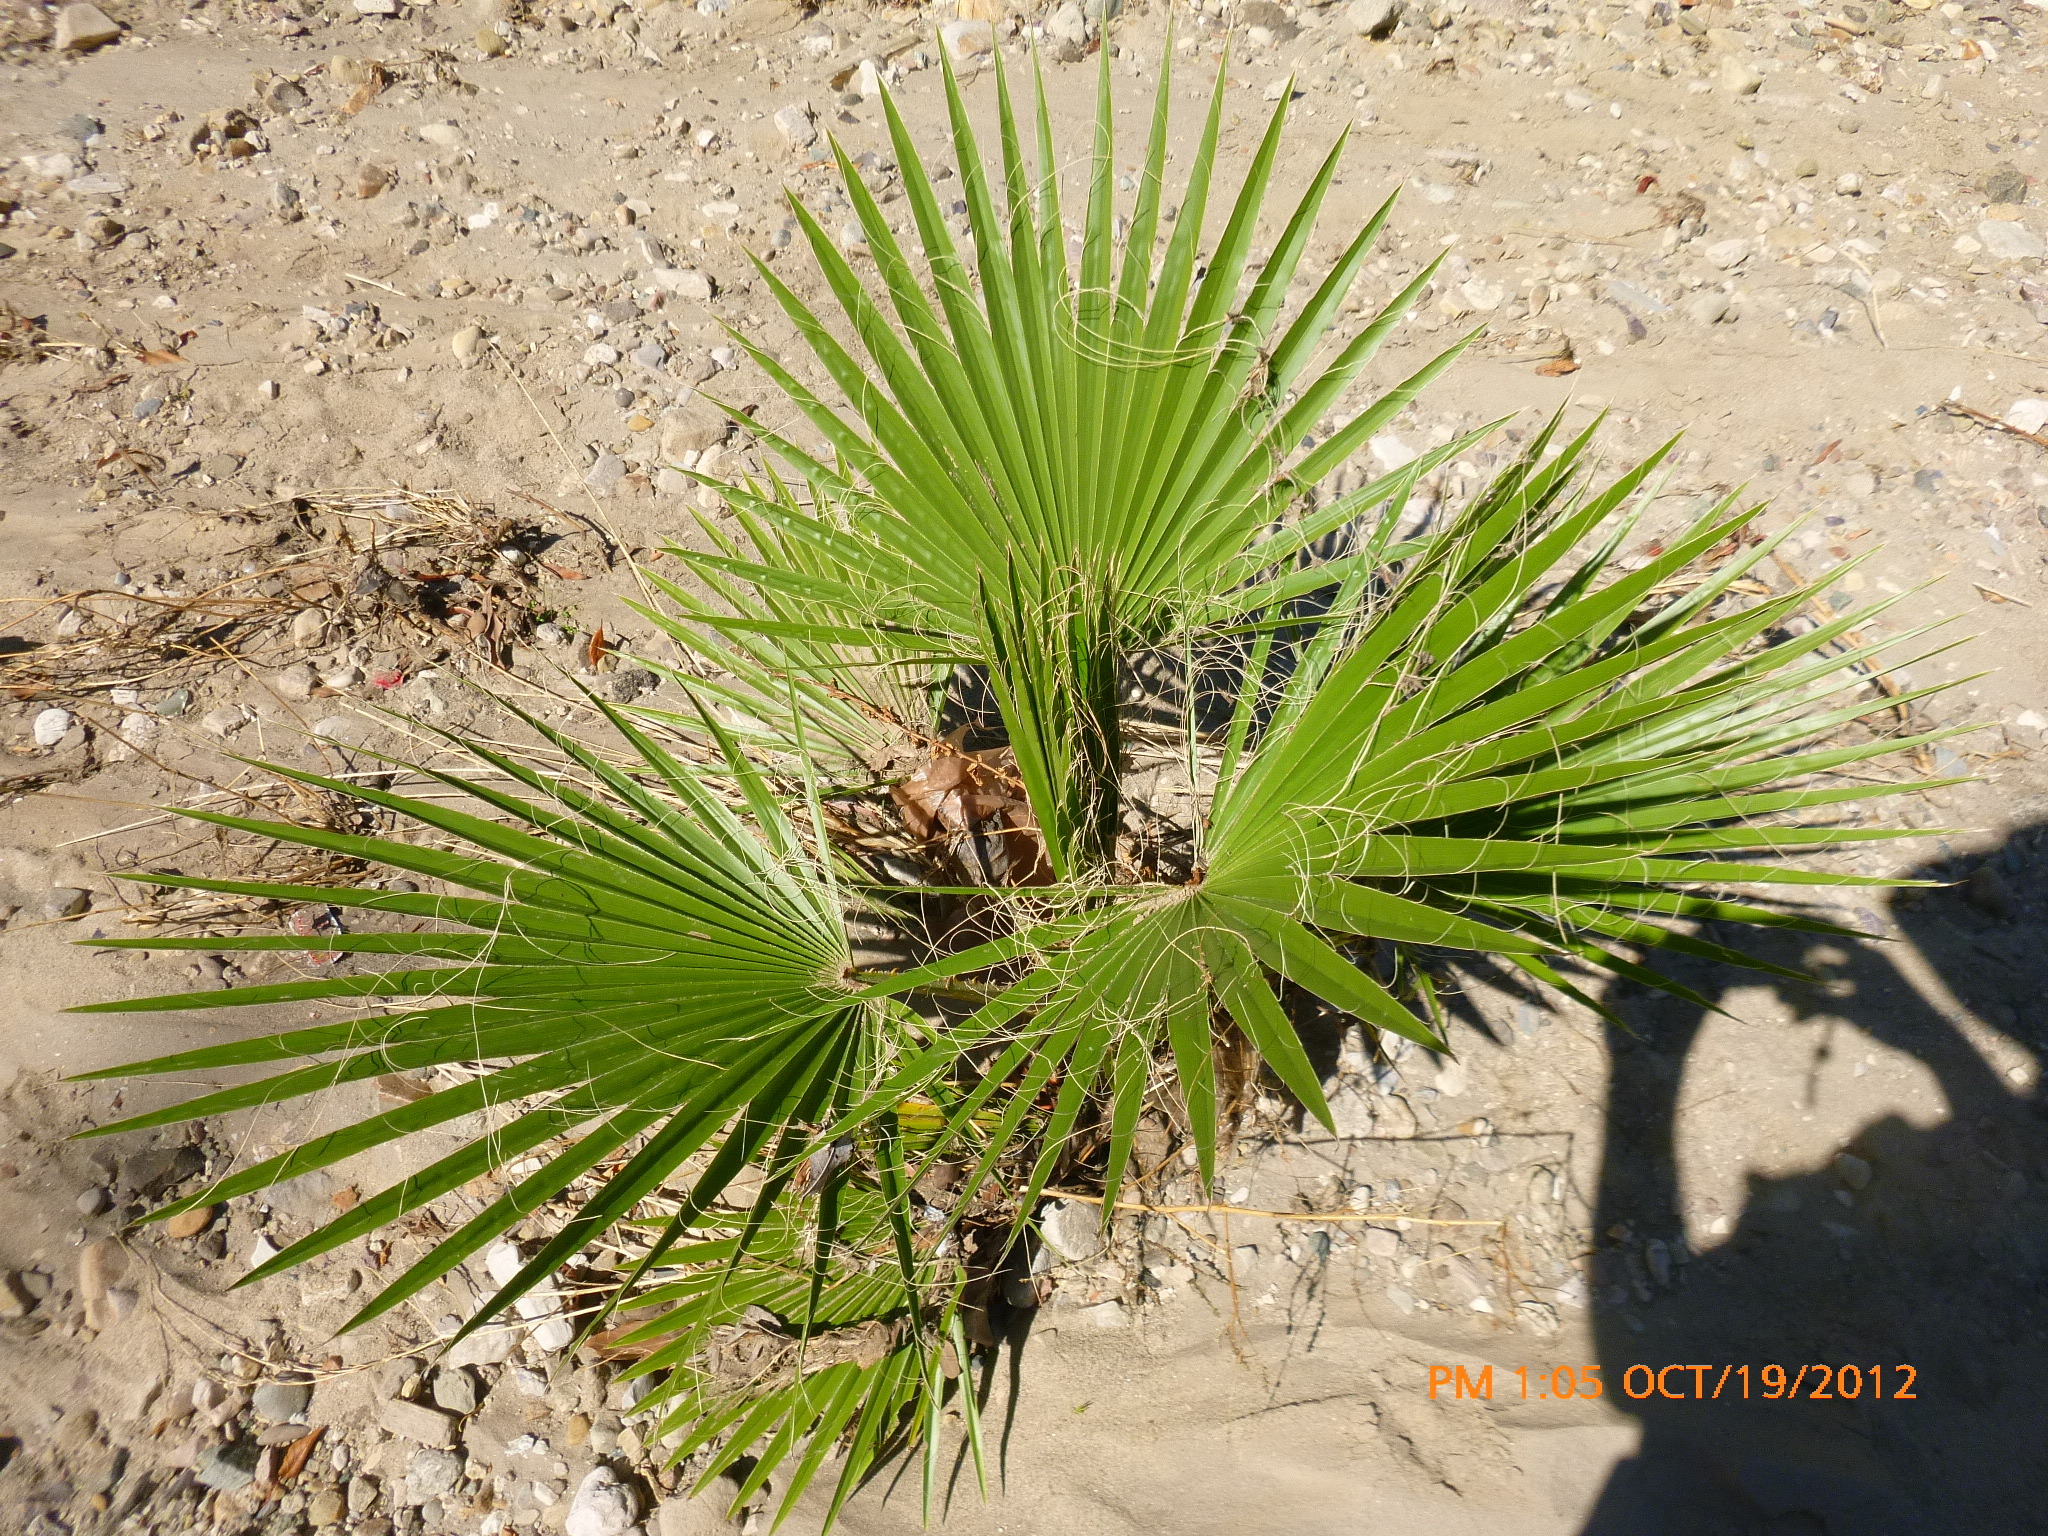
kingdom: Plantae
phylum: Tracheophyta
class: Liliopsida
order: Arecales
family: Arecaceae
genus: Washingtonia
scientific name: Washingtonia robusta
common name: Mexican fan palm
